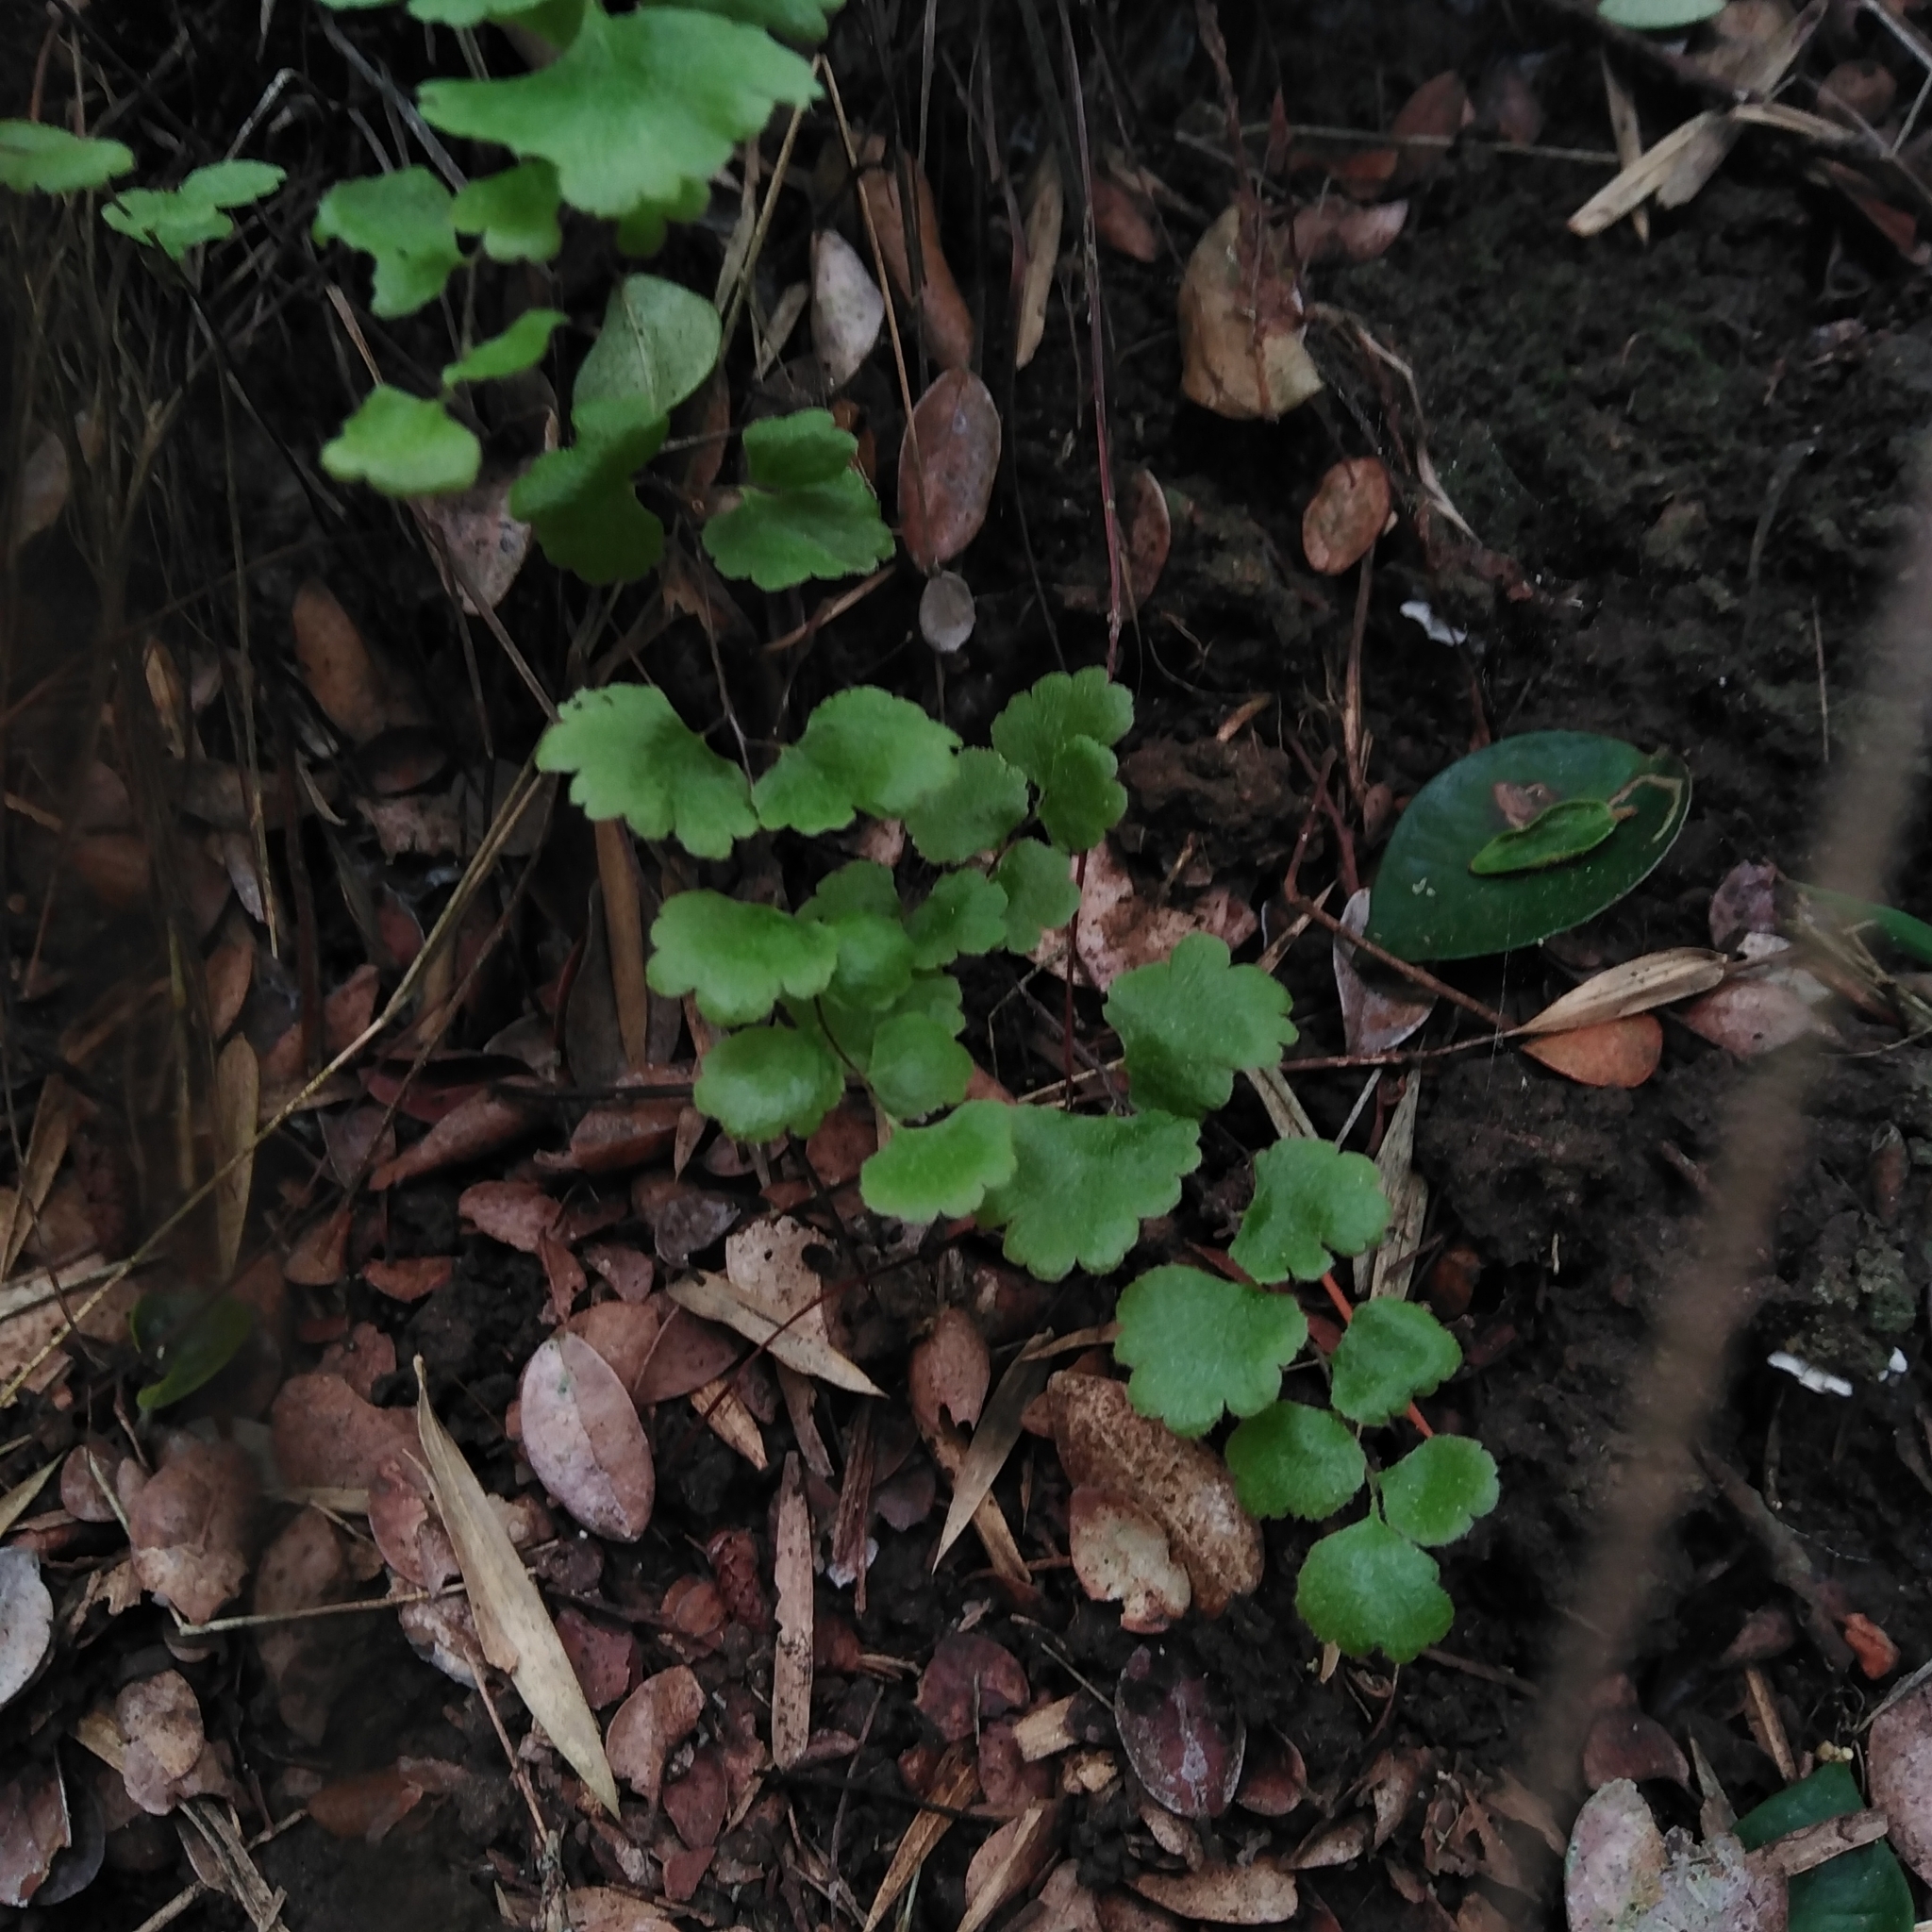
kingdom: Plantae
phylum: Tracheophyta
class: Polypodiopsida
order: Polypodiales
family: Pteridaceae
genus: Adiantum
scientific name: Adiantum chilense
